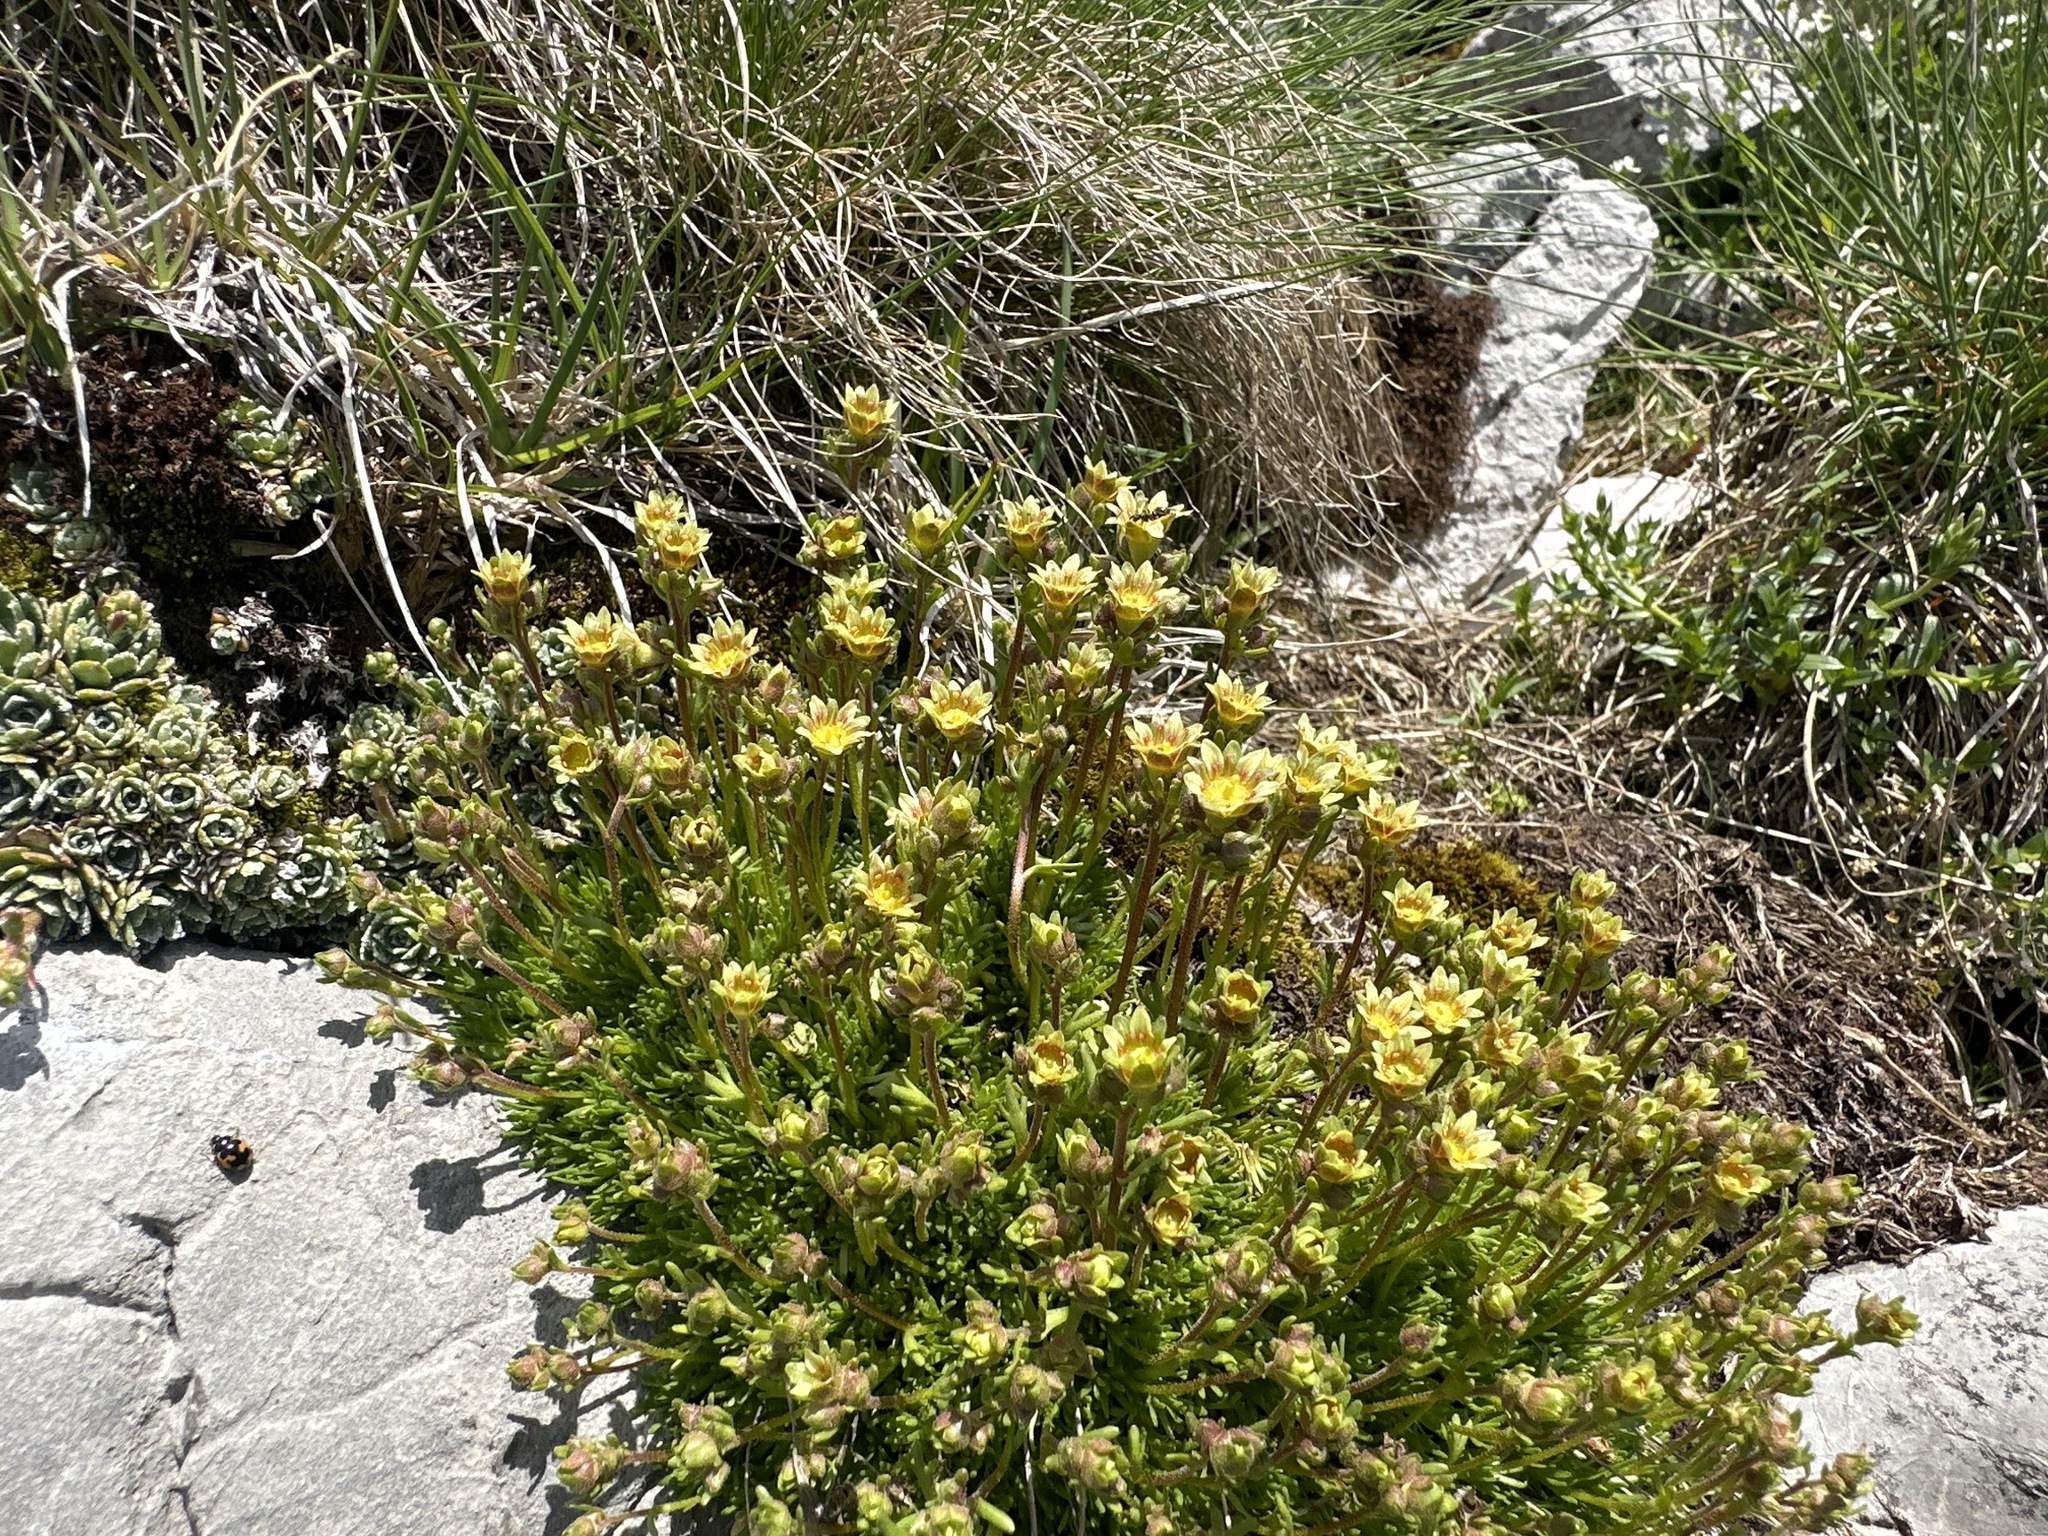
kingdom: Plantae
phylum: Tracheophyta
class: Magnoliopsida
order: Saxifragales
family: Saxifragaceae
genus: Saxifraga
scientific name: Saxifraga moschata
